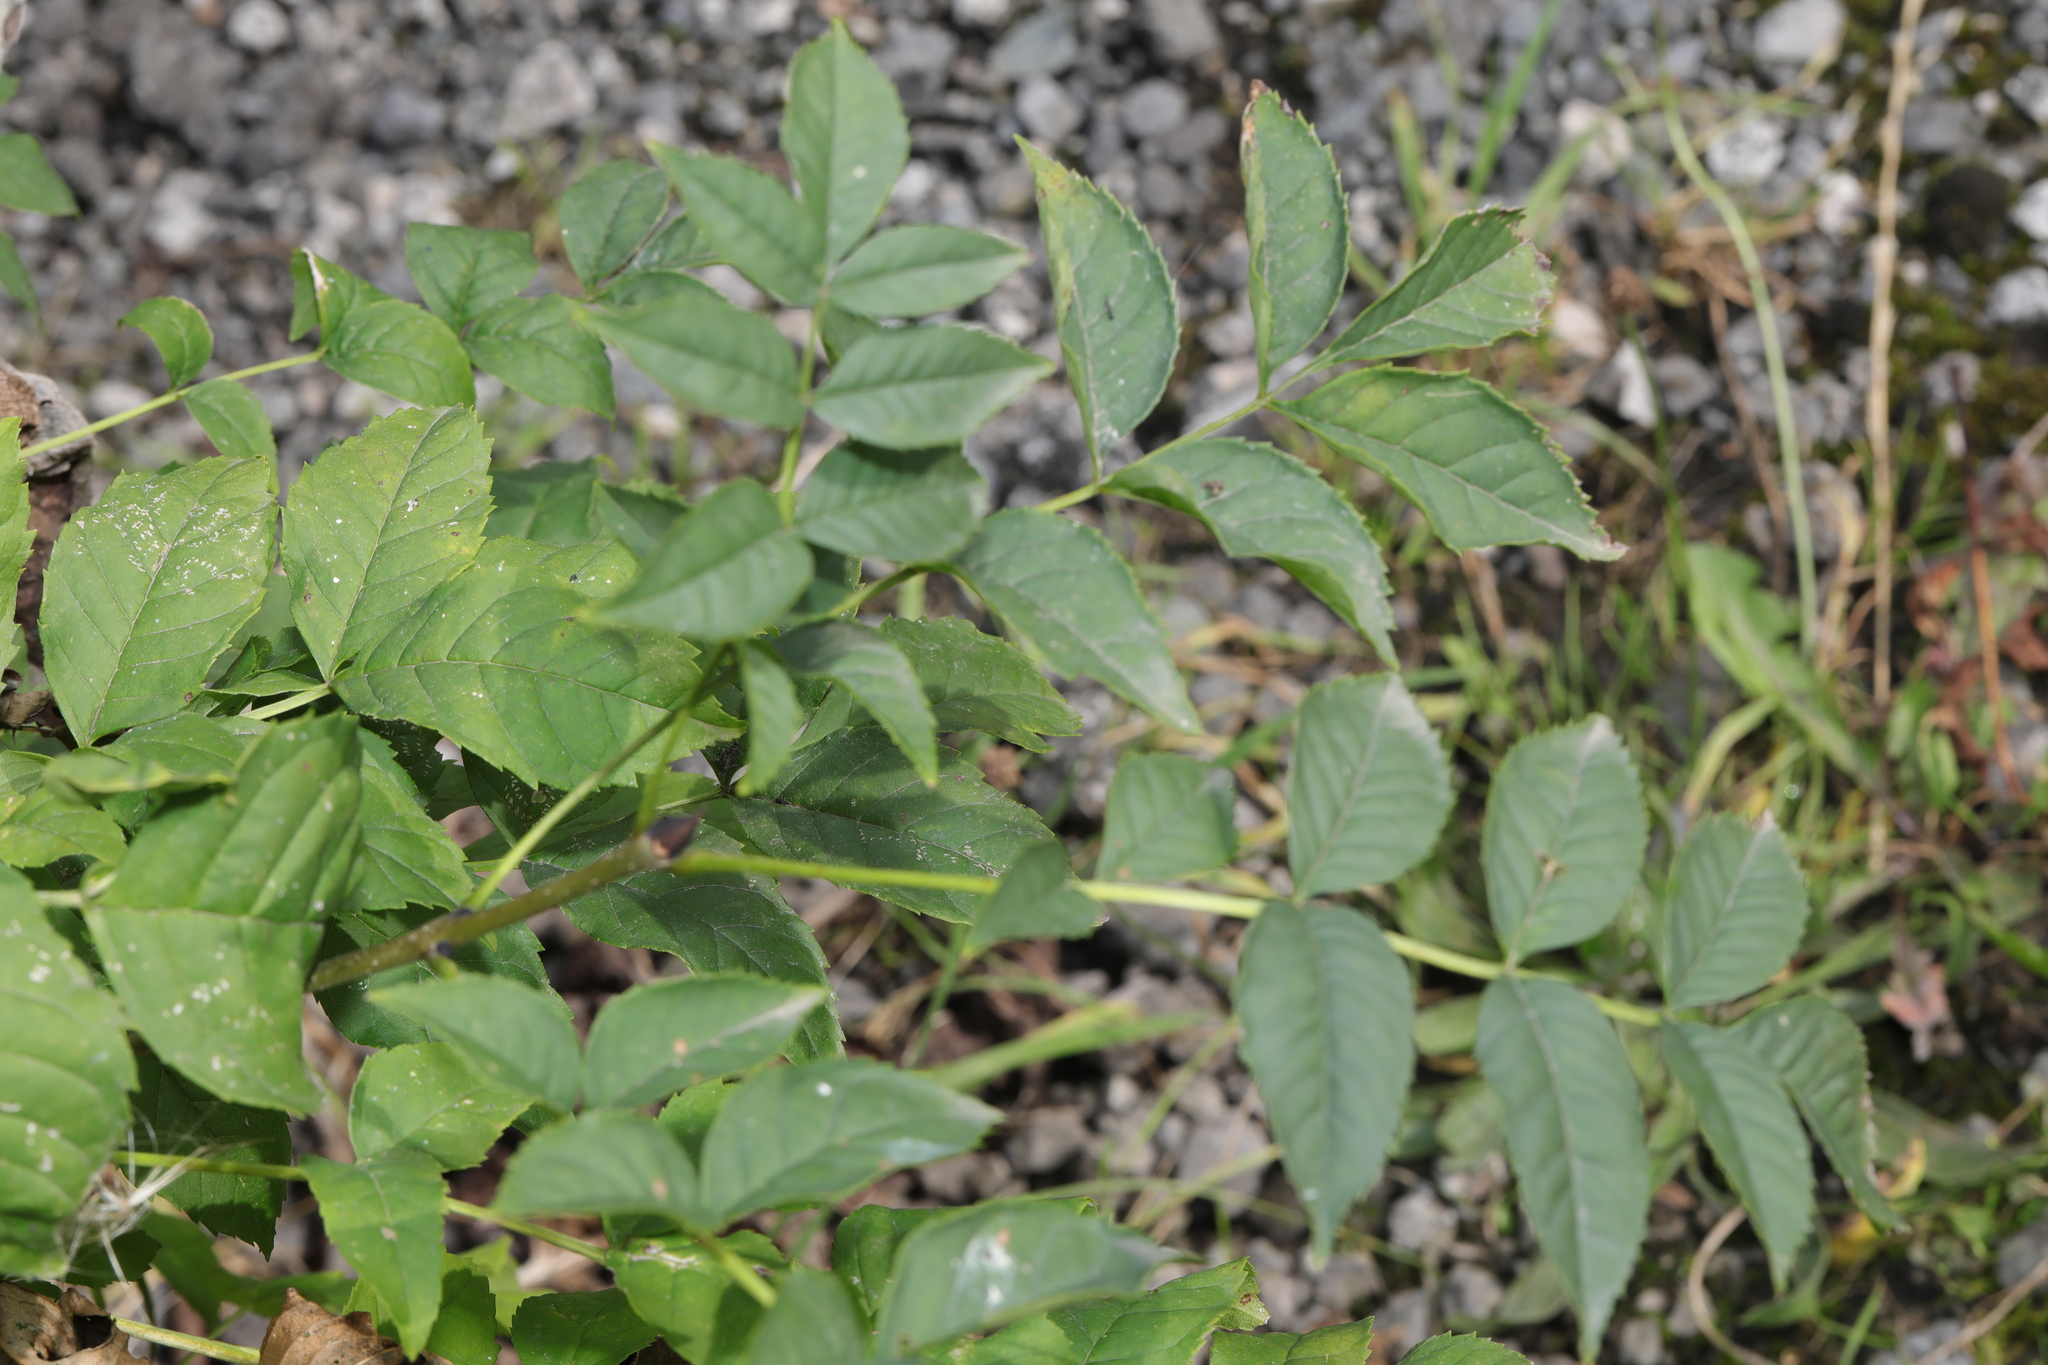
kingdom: Plantae
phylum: Tracheophyta
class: Magnoliopsida
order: Lamiales
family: Oleaceae
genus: Fraxinus
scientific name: Fraxinus excelsior
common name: European ash
